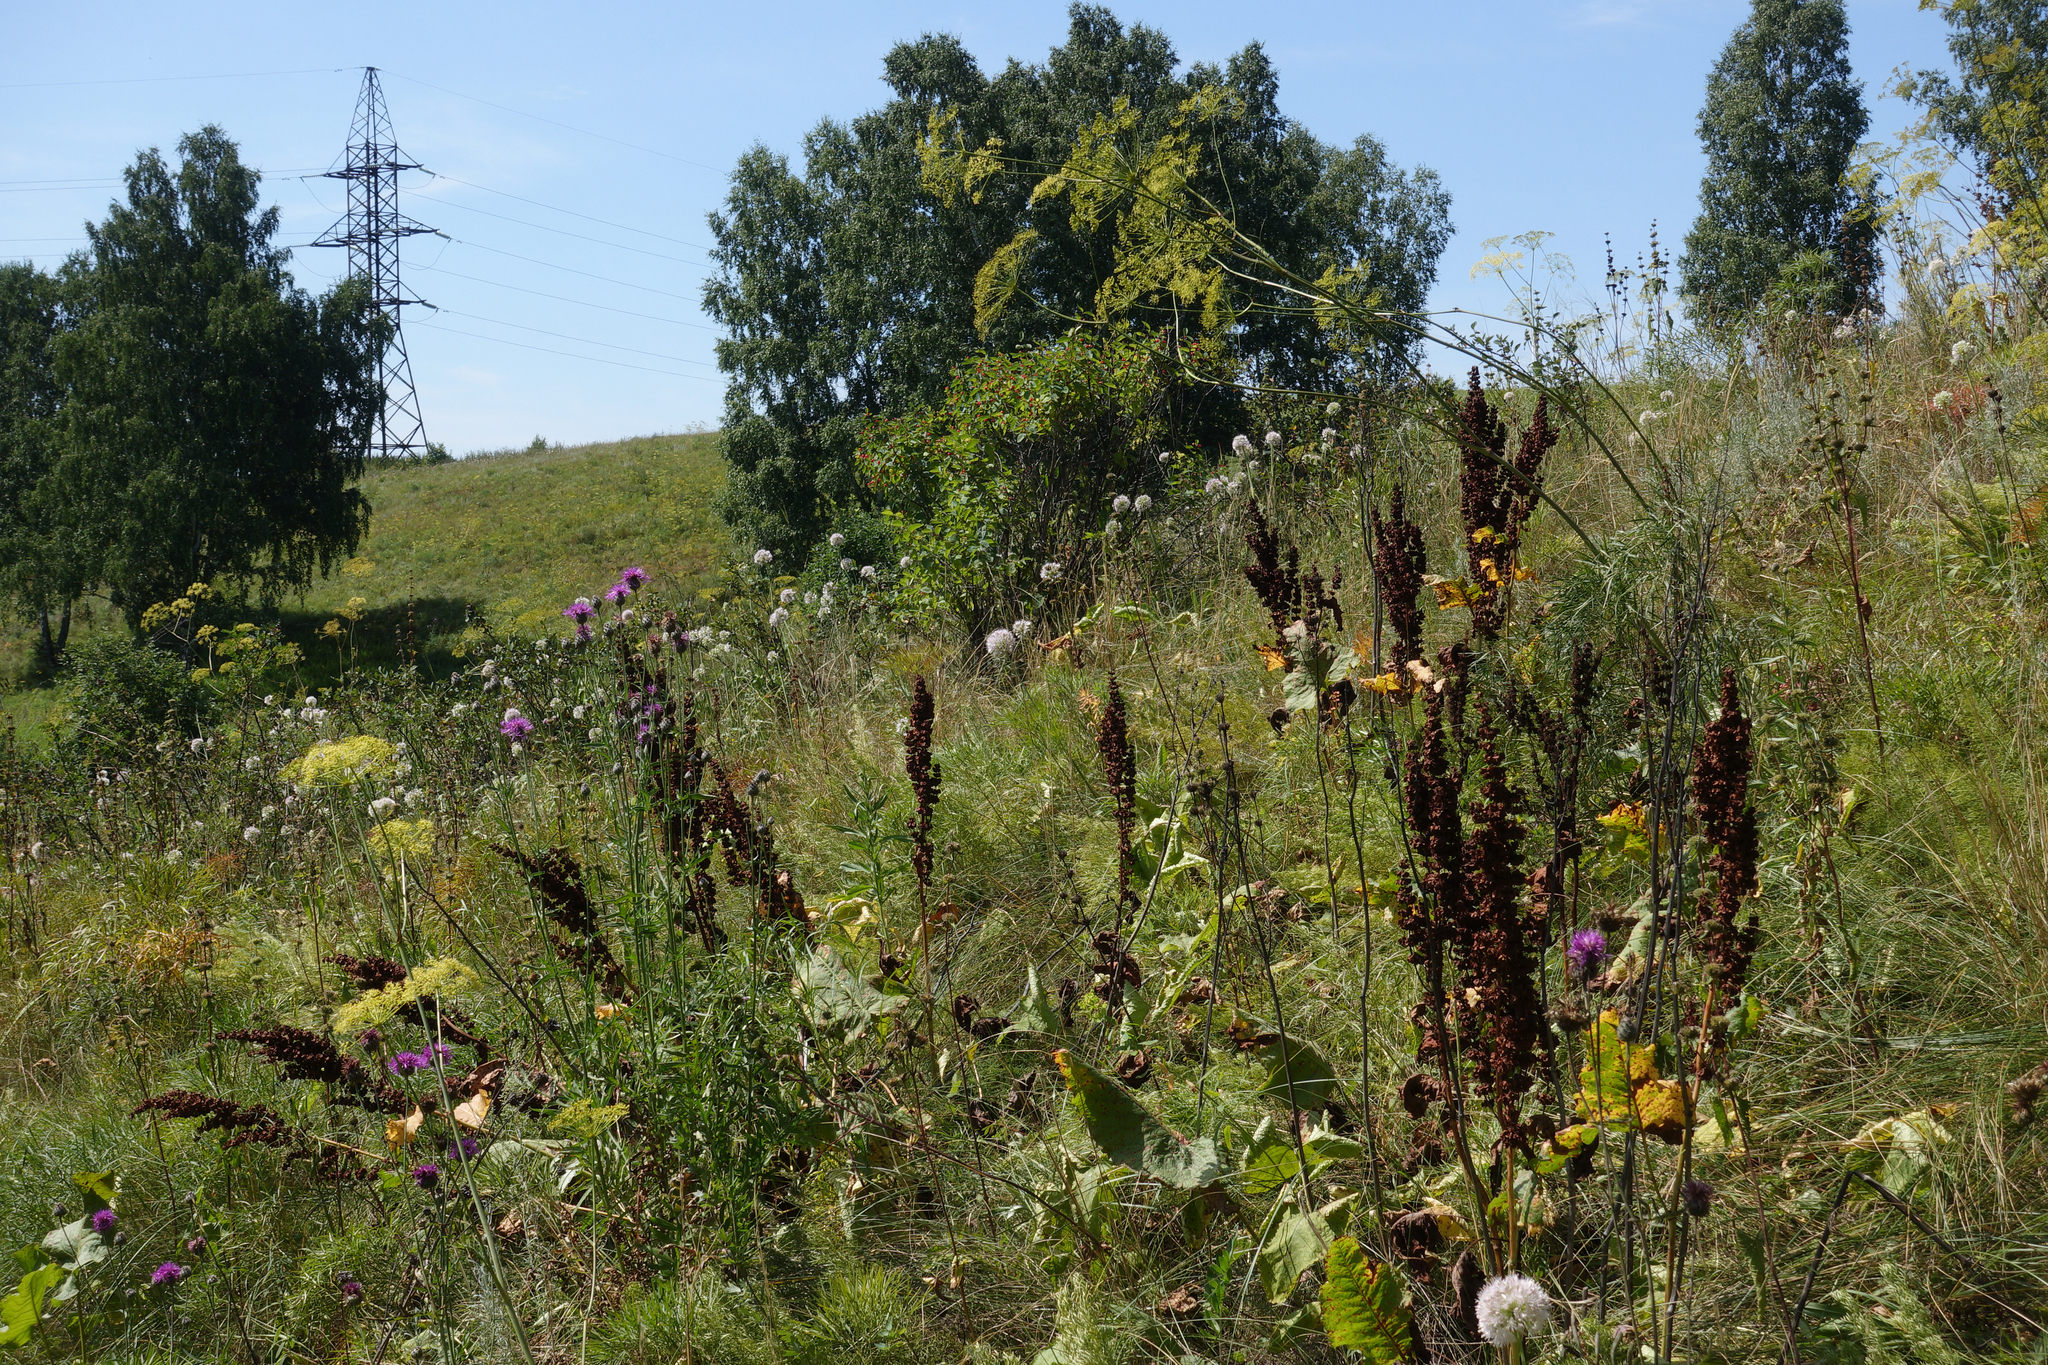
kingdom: Plantae
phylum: Tracheophyta
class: Magnoliopsida
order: Caryophyllales
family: Polygonaceae
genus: Rumex
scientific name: Rumex confertus
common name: Russian dock
